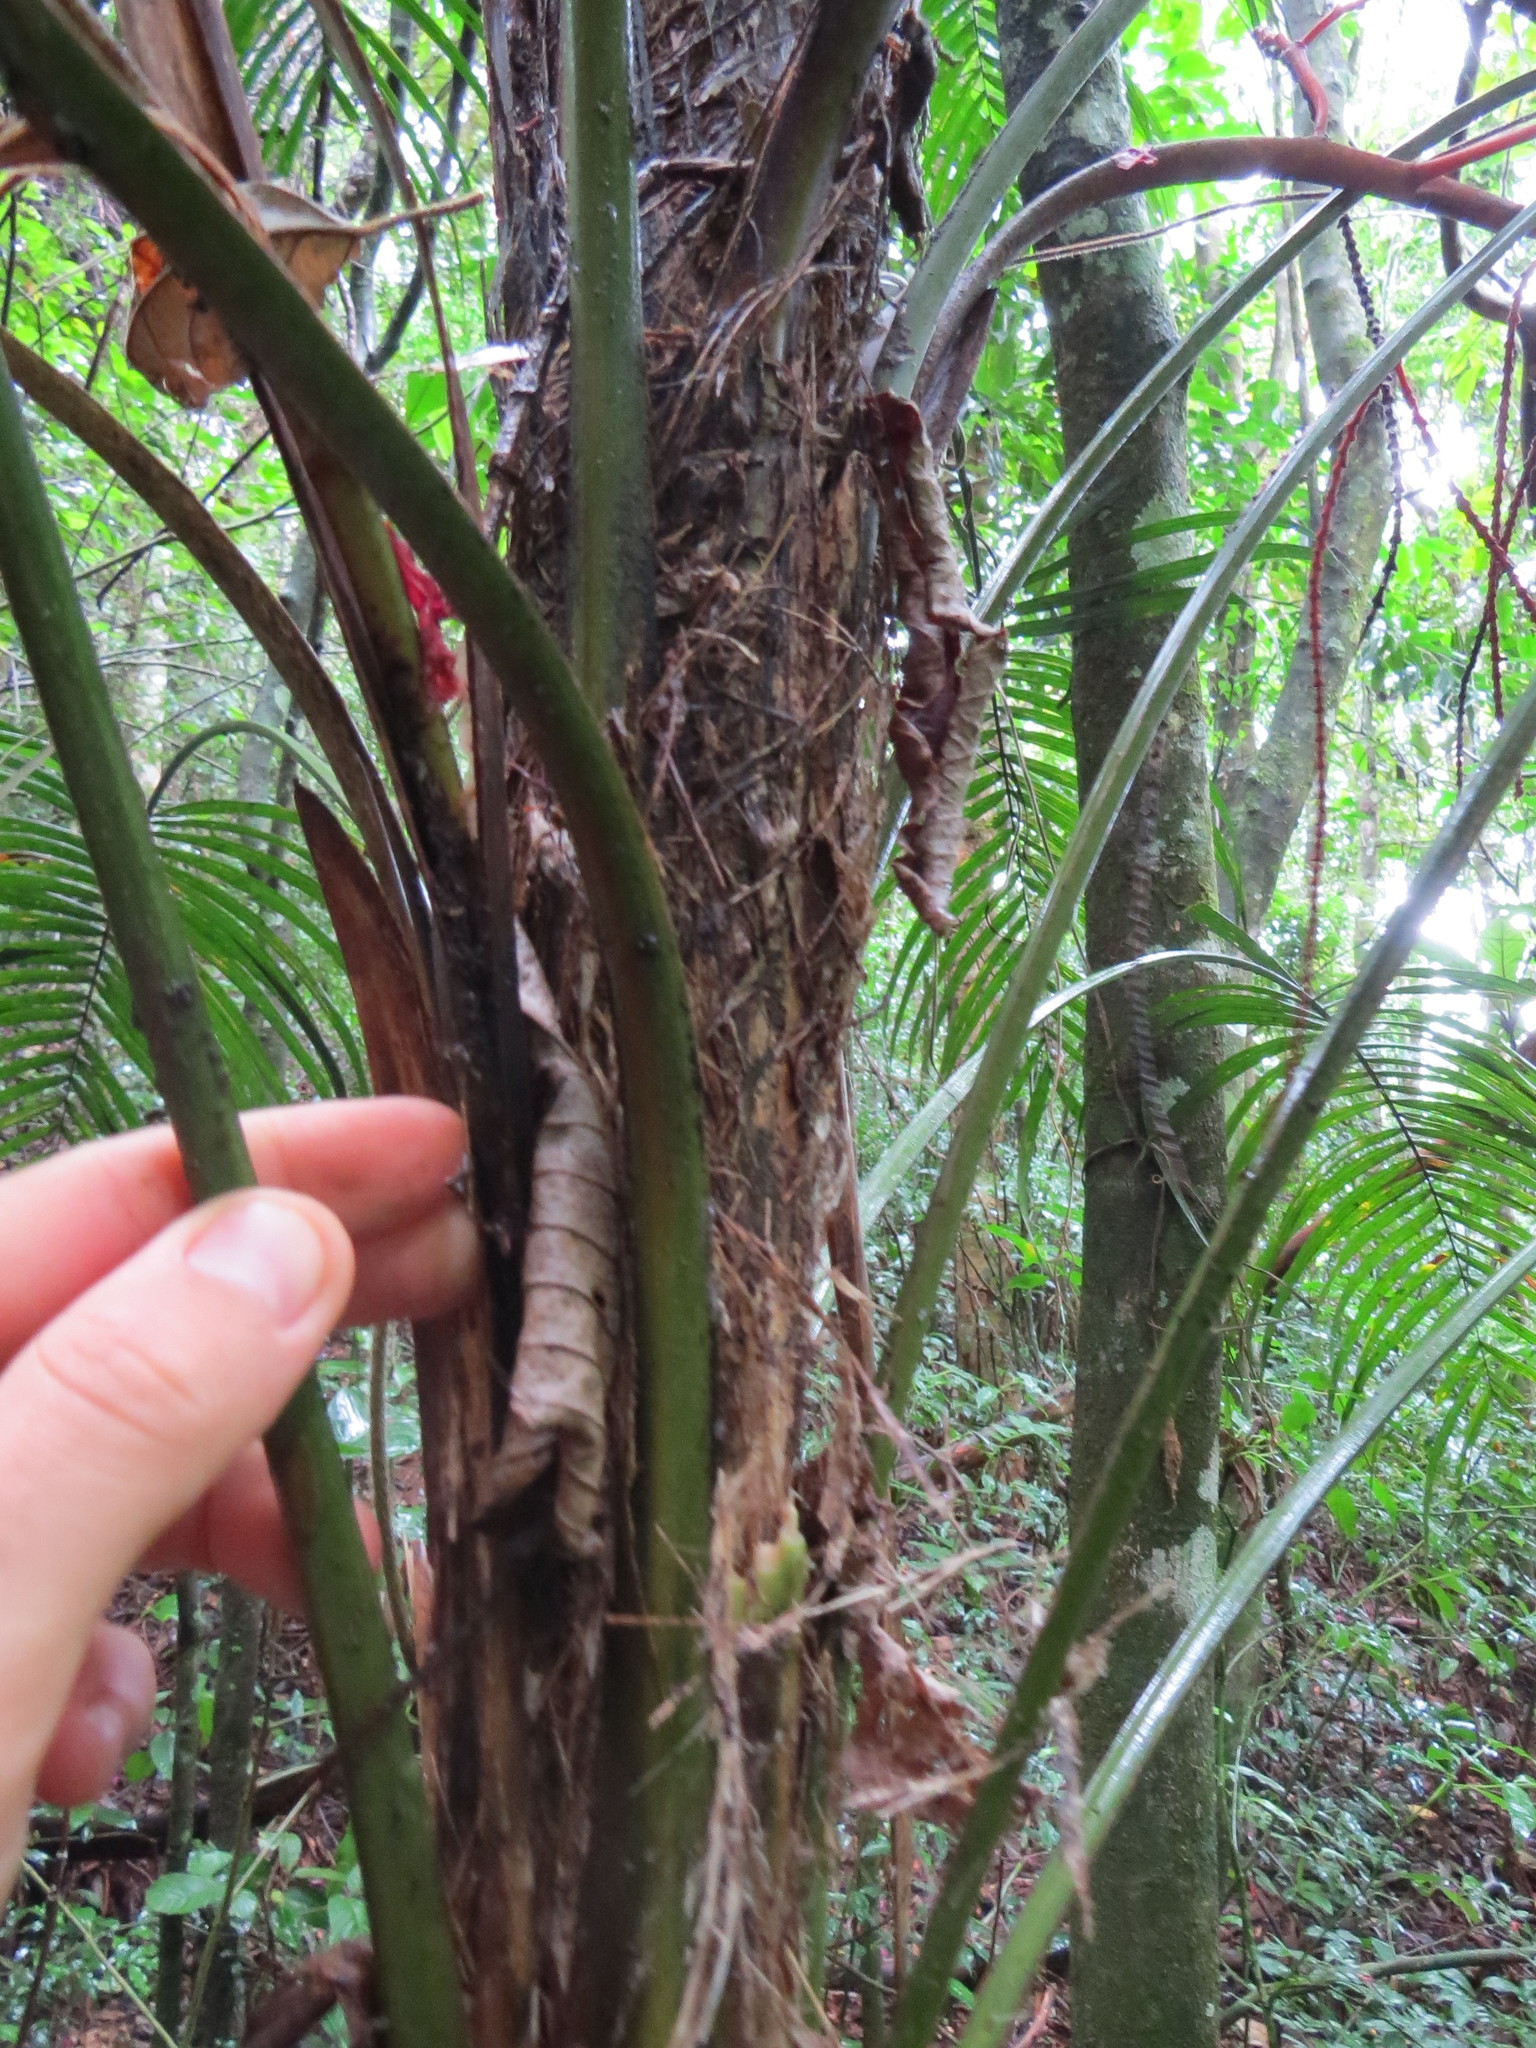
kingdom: Plantae
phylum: Tracheophyta
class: Liliopsida
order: Arecales
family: Arecaceae
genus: Geonoma
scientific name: Geonoma schottiana
